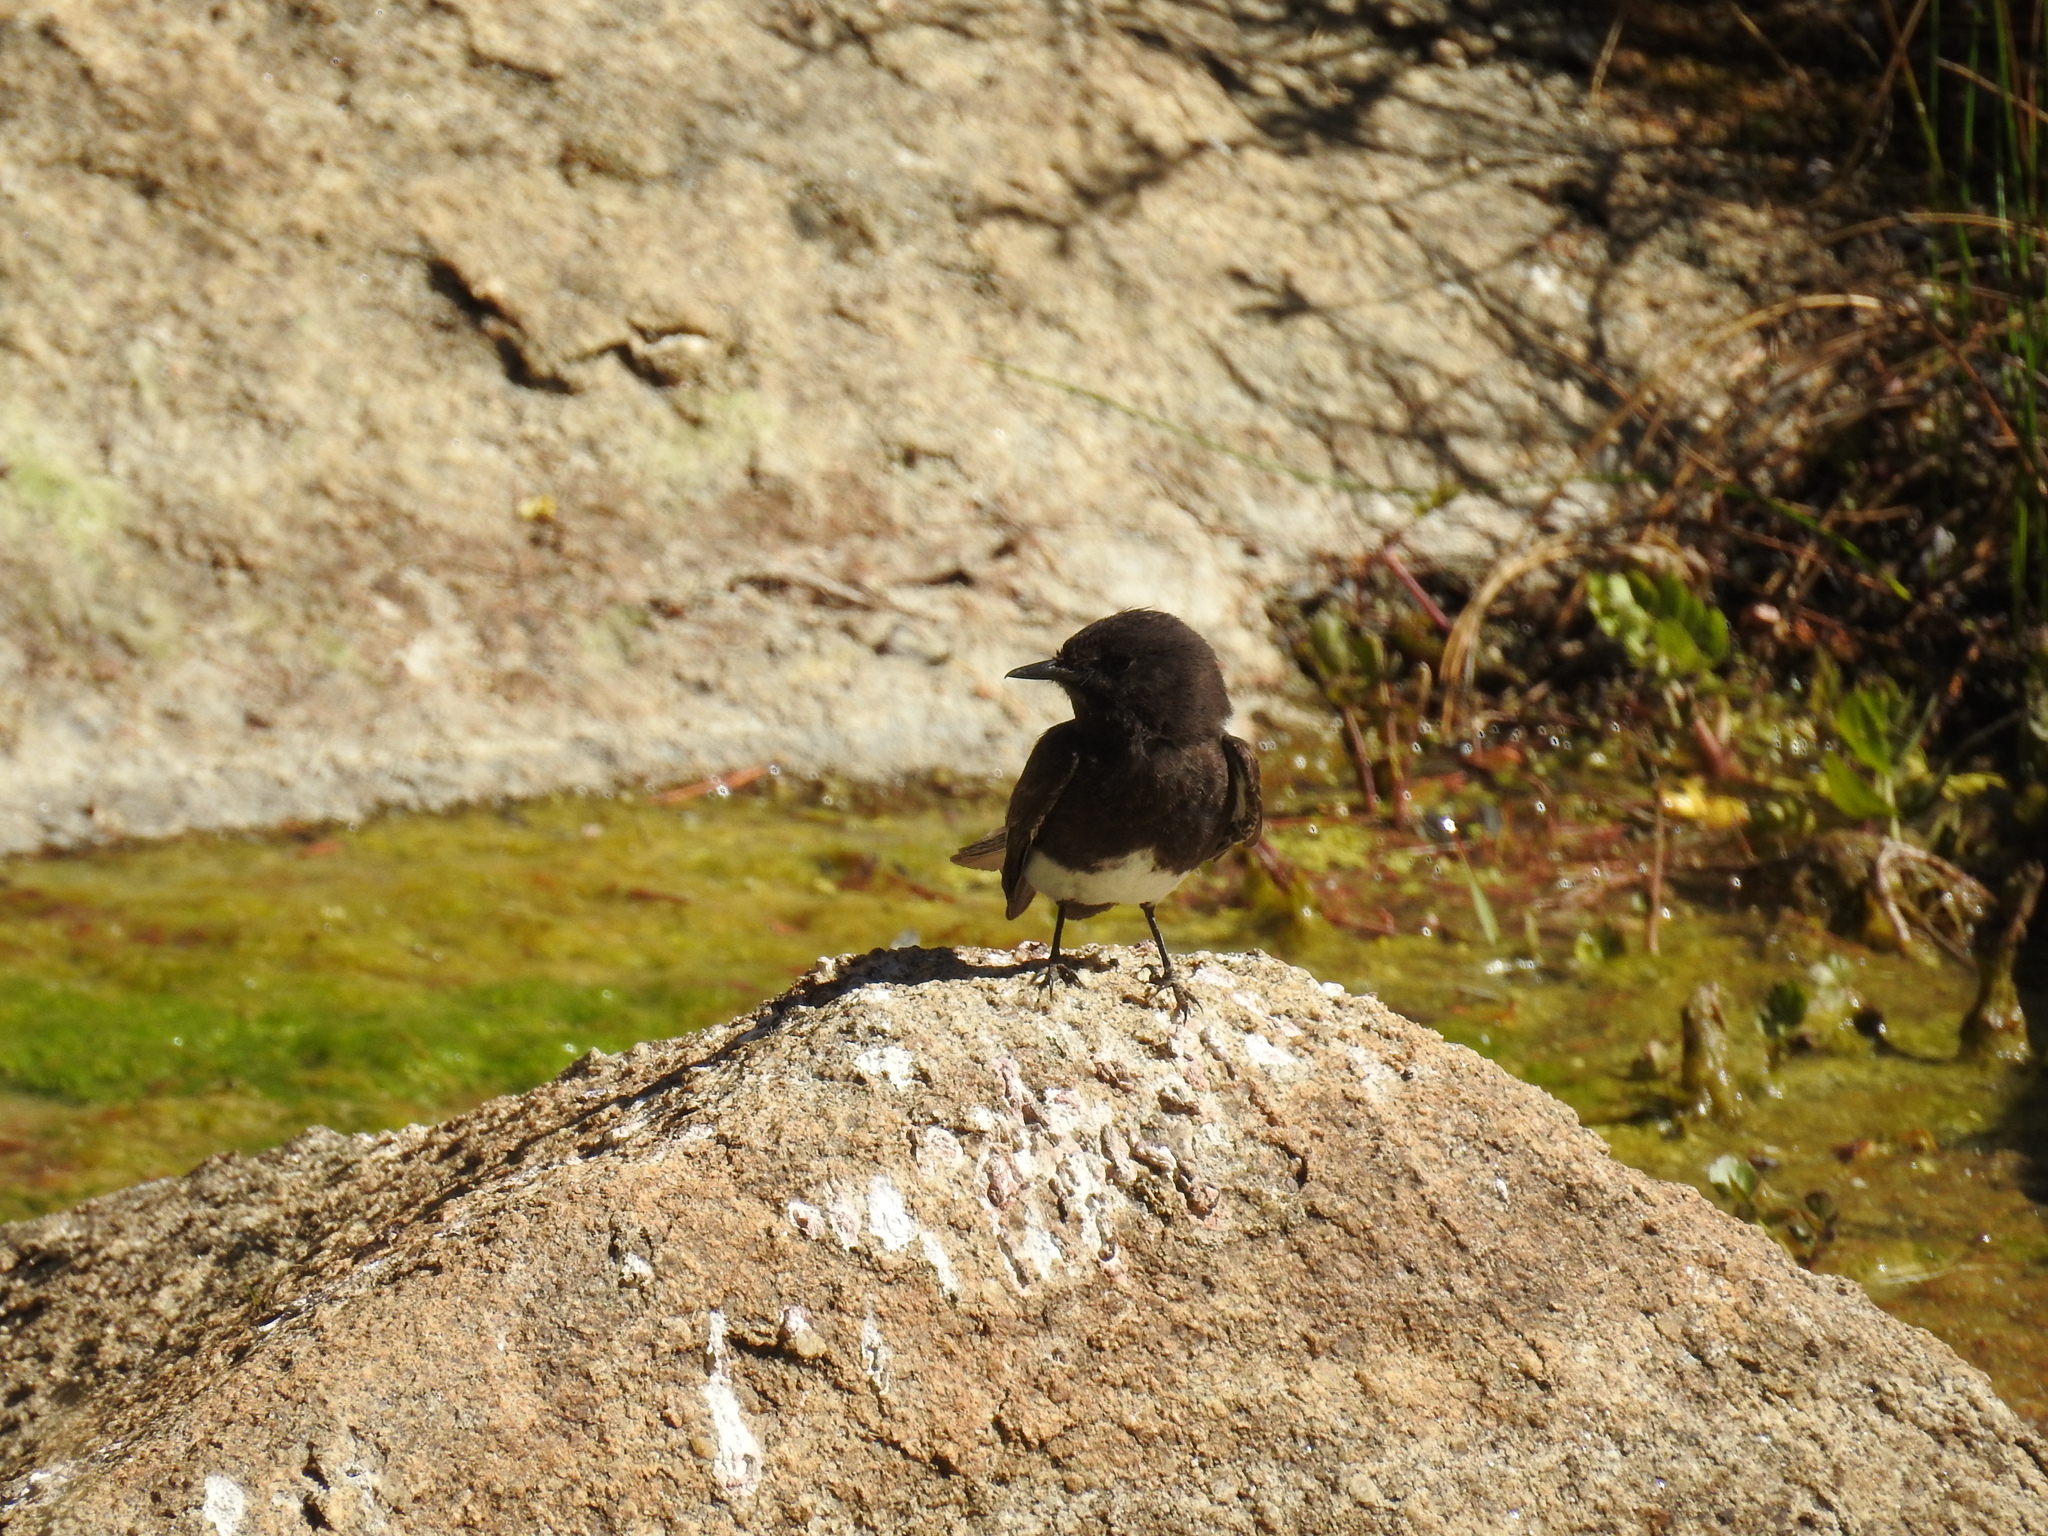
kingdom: Animalia
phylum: Chordata
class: Aves
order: Passeriformes
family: Tyrannidae
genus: Sayornis
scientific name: Sayornis nigricans
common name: Black phoebe
